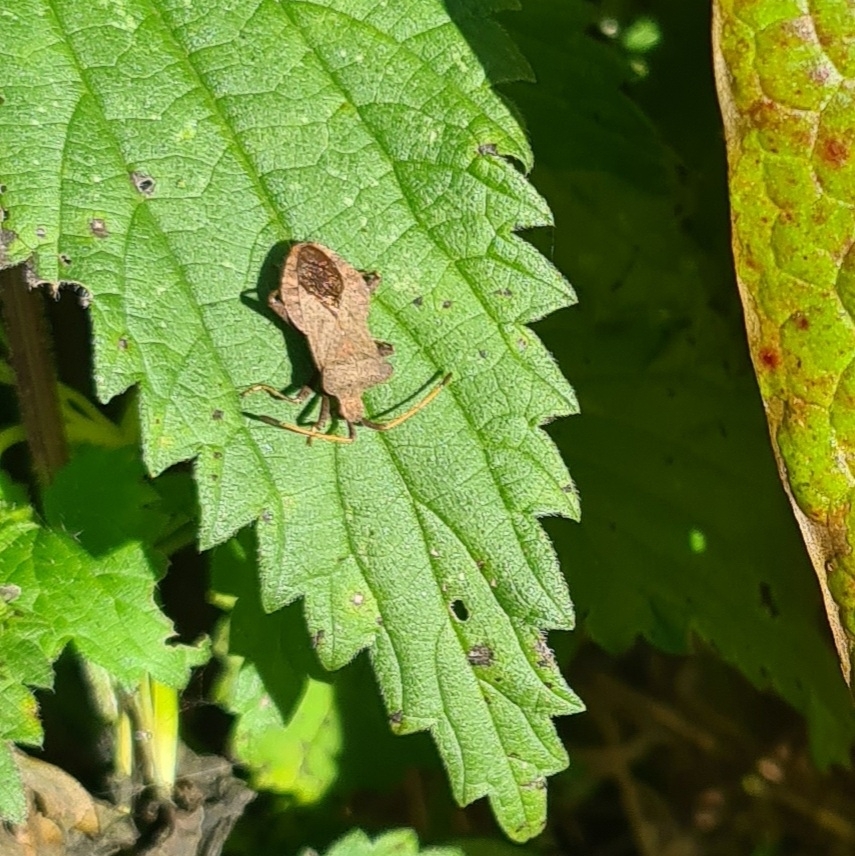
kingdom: Animalia
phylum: Arthropoda
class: Insecta
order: Hemiptera
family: Coreidae
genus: Coreus
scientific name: Coreus marginatus
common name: Dock bug
